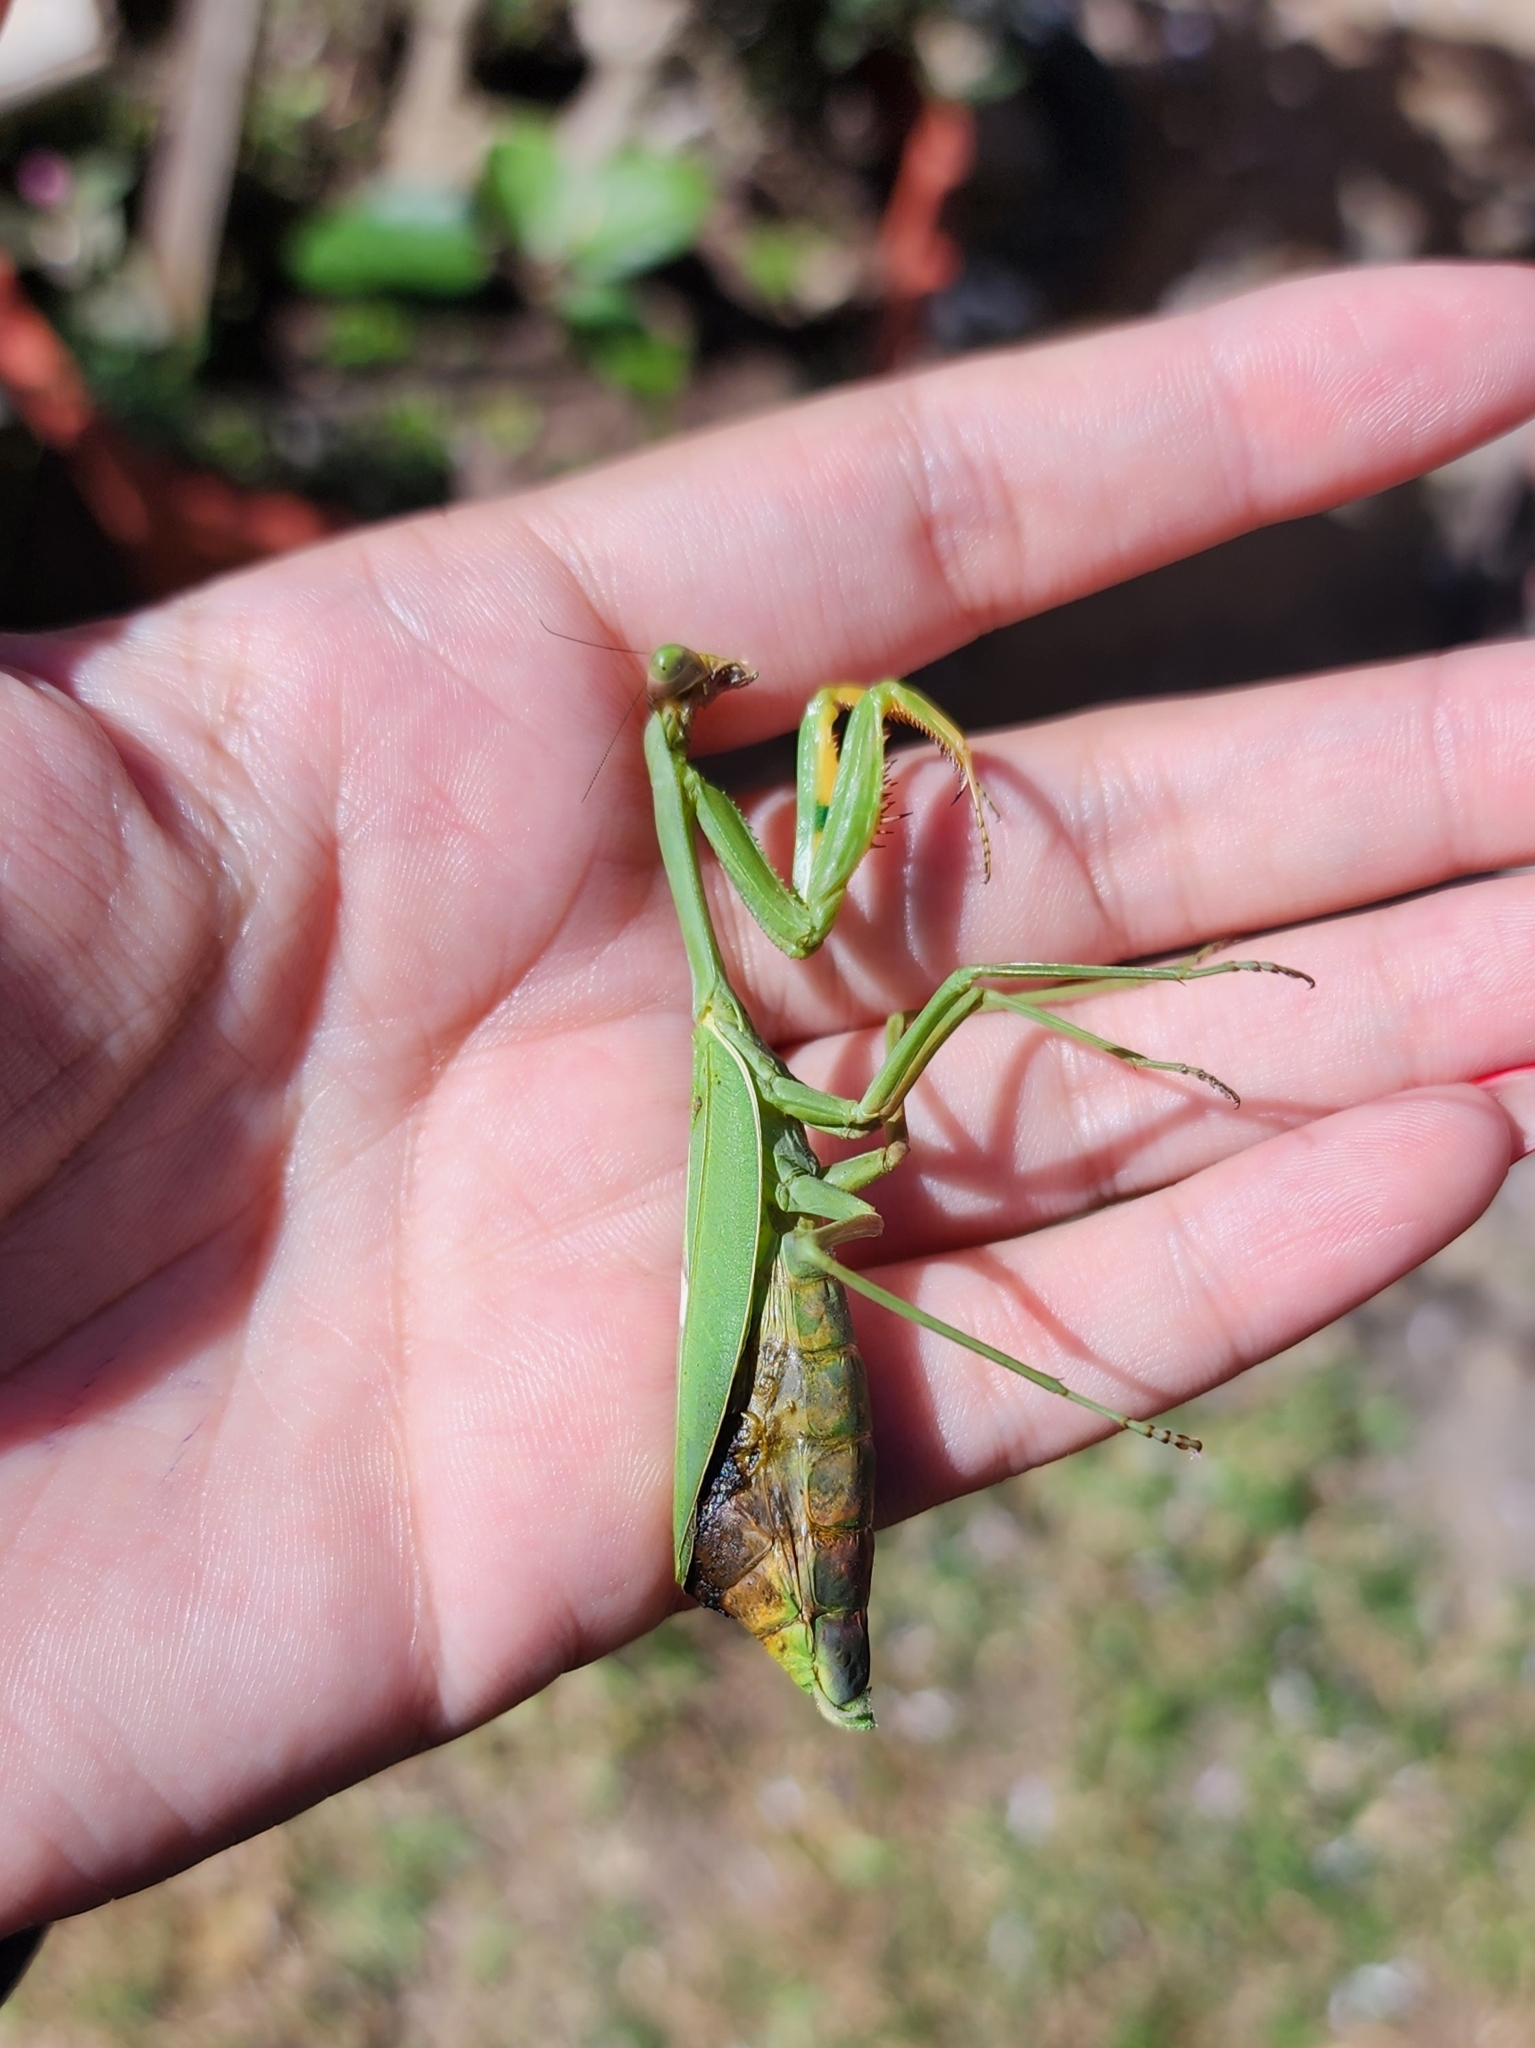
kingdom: Animalia
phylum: Arthropoda
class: Insecta
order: Mantodea
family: Mantidae
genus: Stagmatoptera
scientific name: Stagmatoptera hyaloptera
